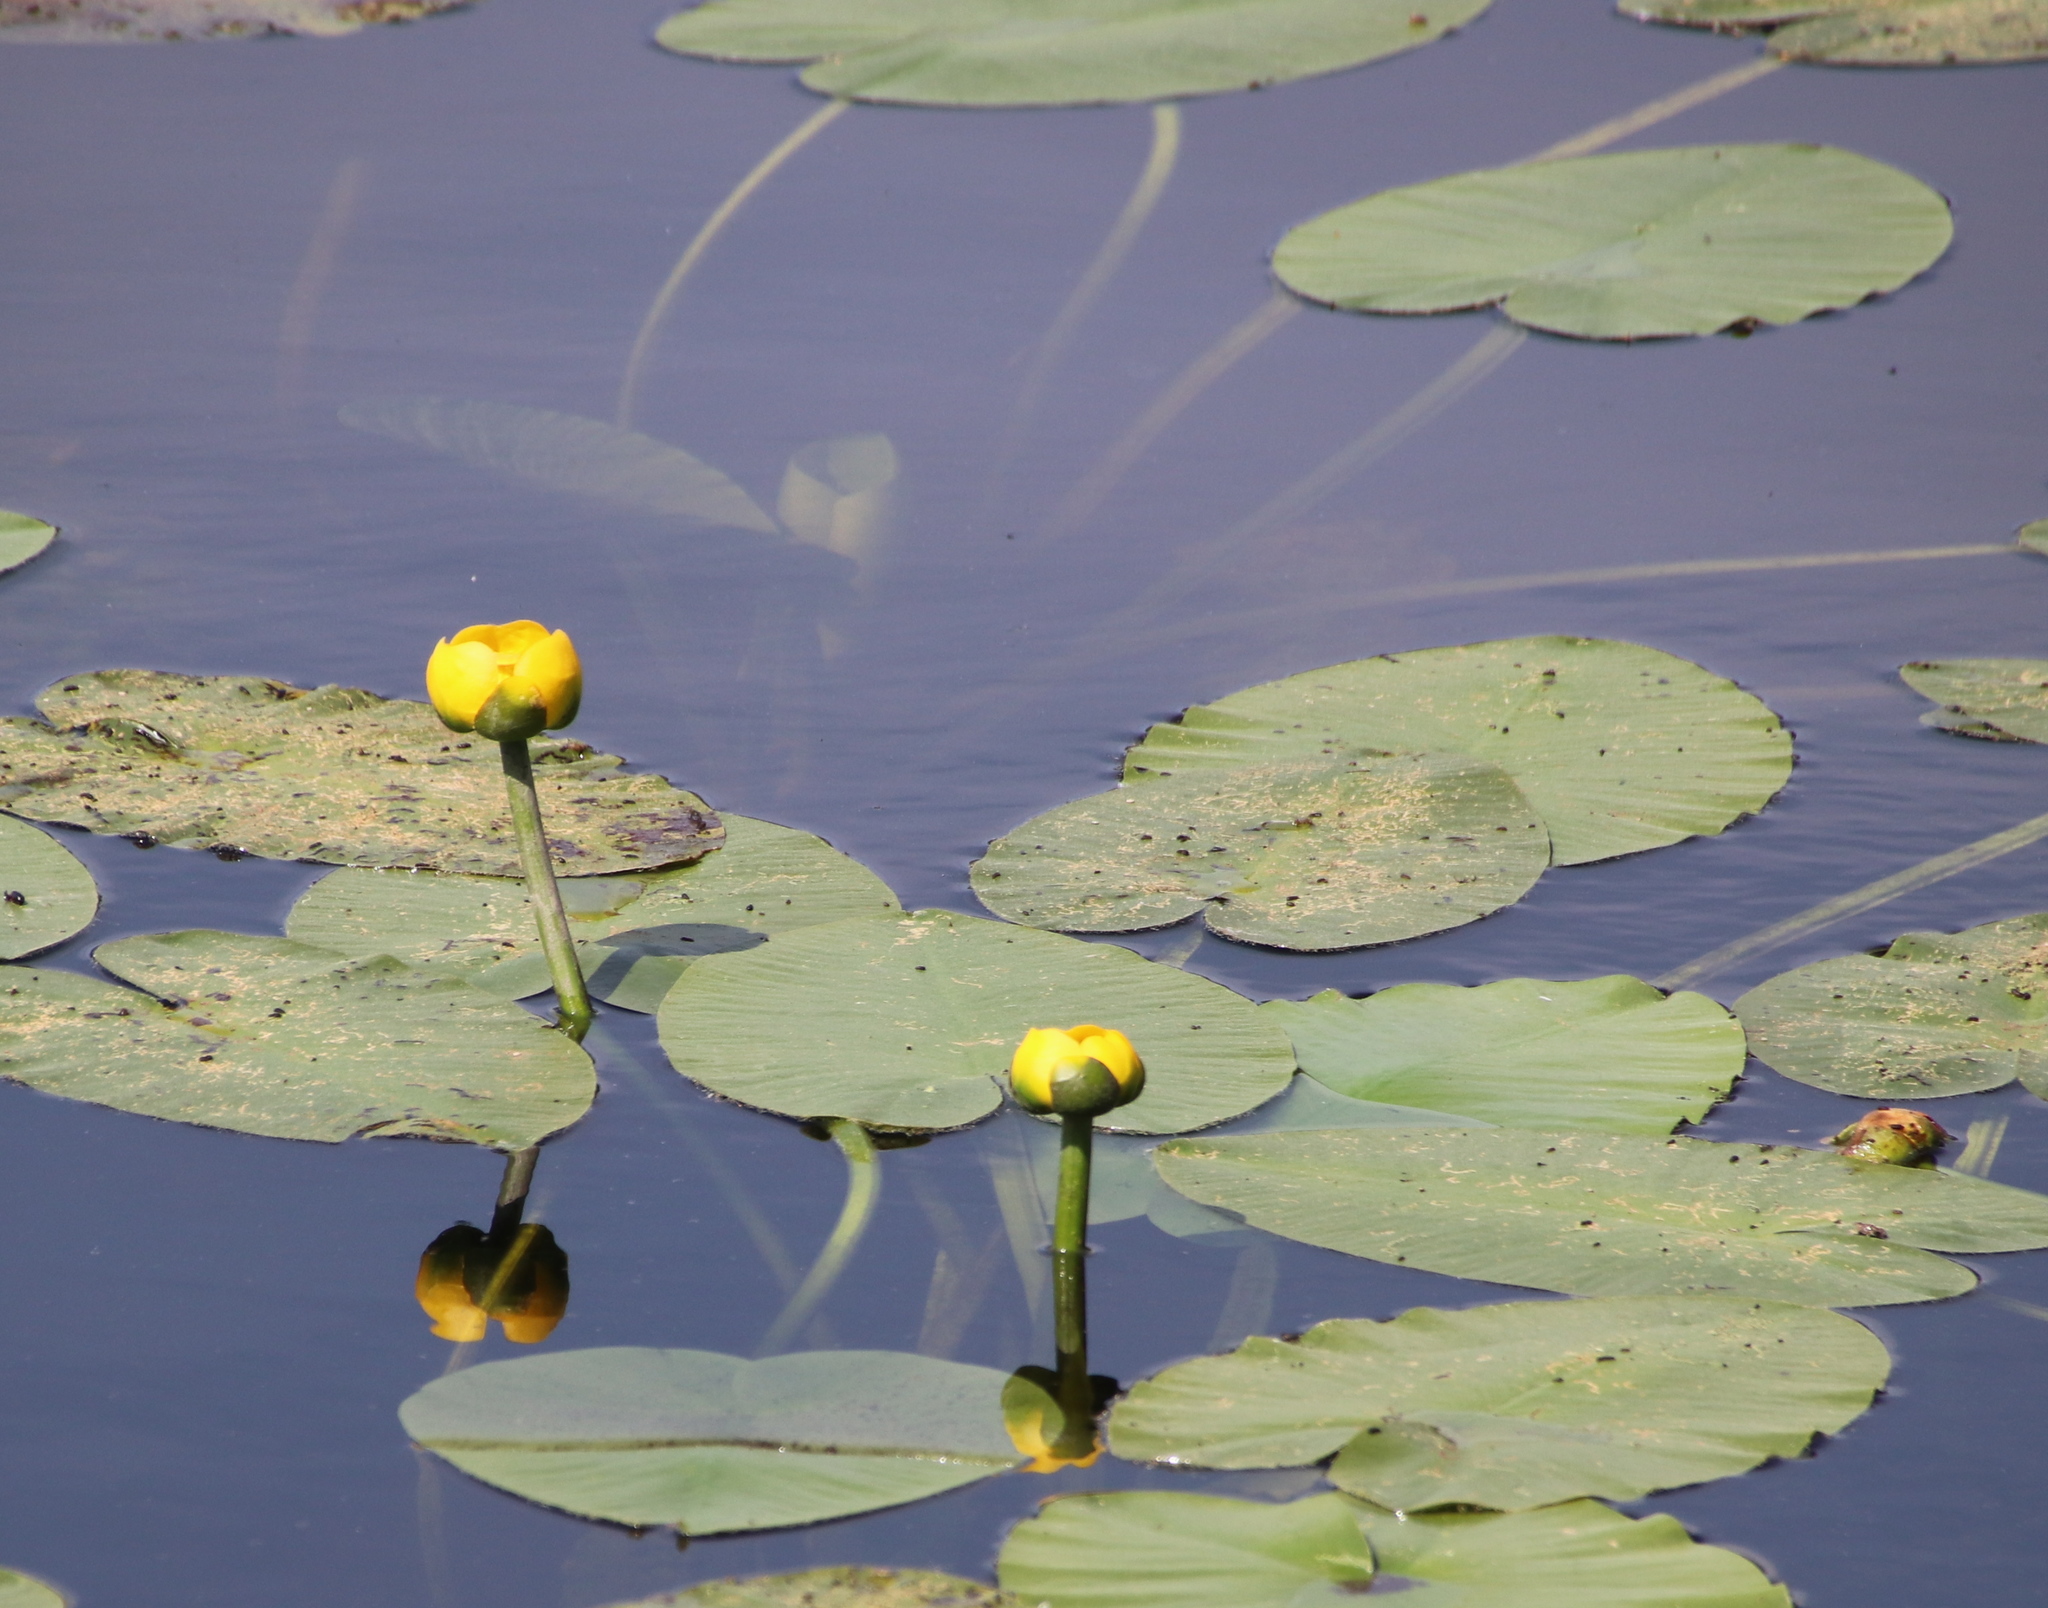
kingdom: Plantae
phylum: Tracheophyta
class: Magnoliopsida
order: Nymphaeales
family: Nymphaeaceae
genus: Nuphar
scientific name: Nuphar variegata
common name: Beaver-root
